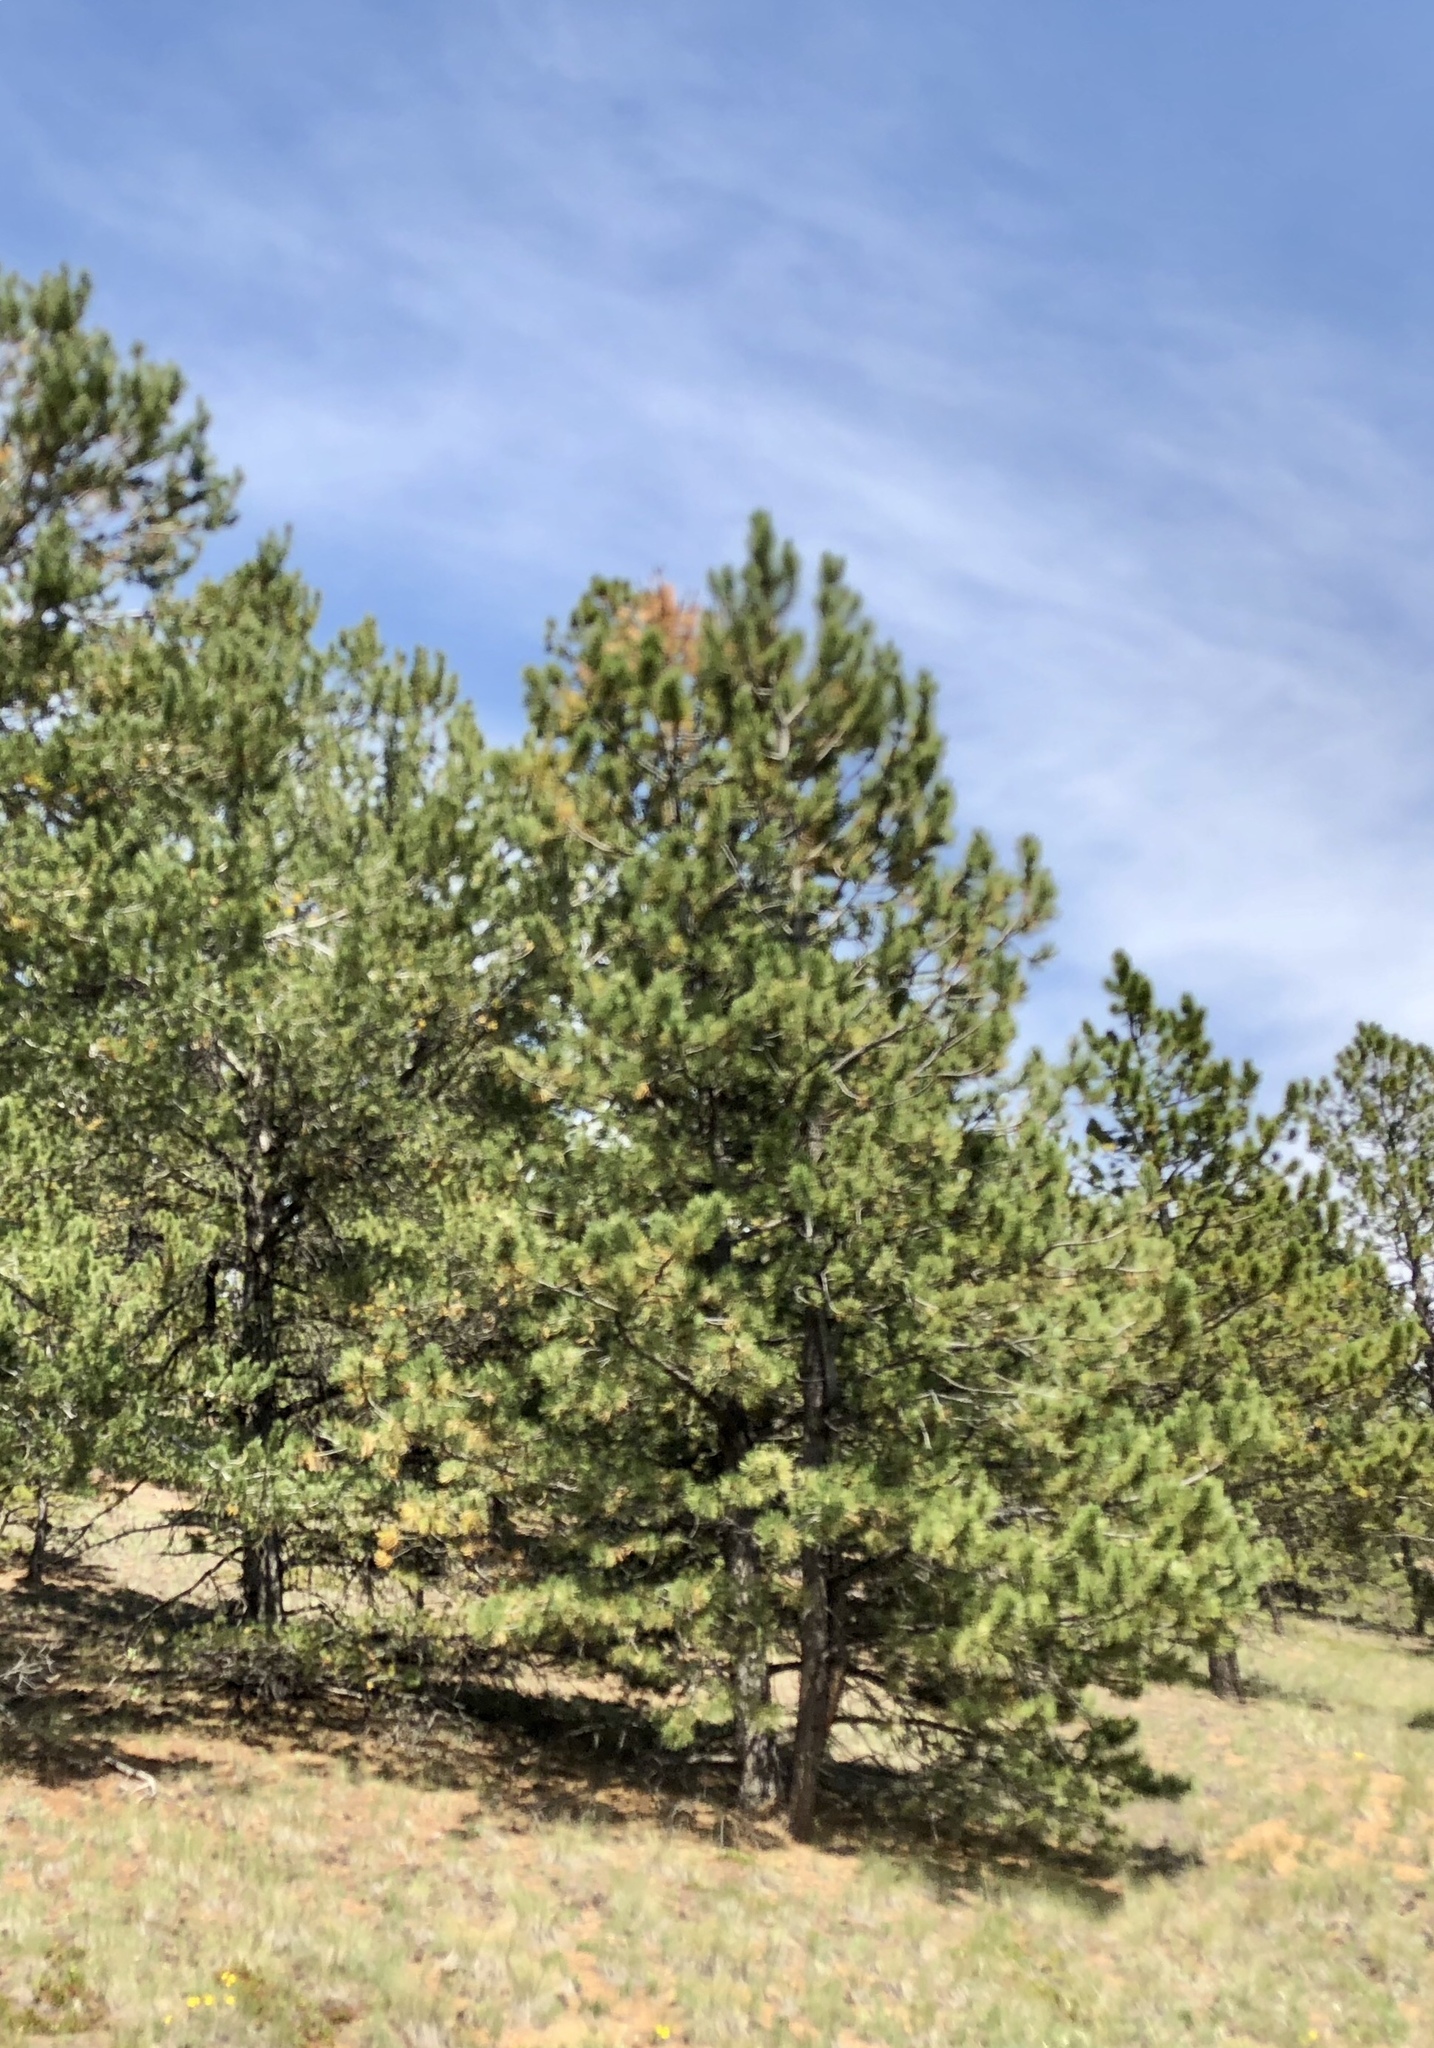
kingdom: Plantae
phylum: Tracheophyta
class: Pinopsida
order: Pinales
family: Pinaceae
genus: Pinus
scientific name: Pinus ponderosa
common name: Western yellow-pine
